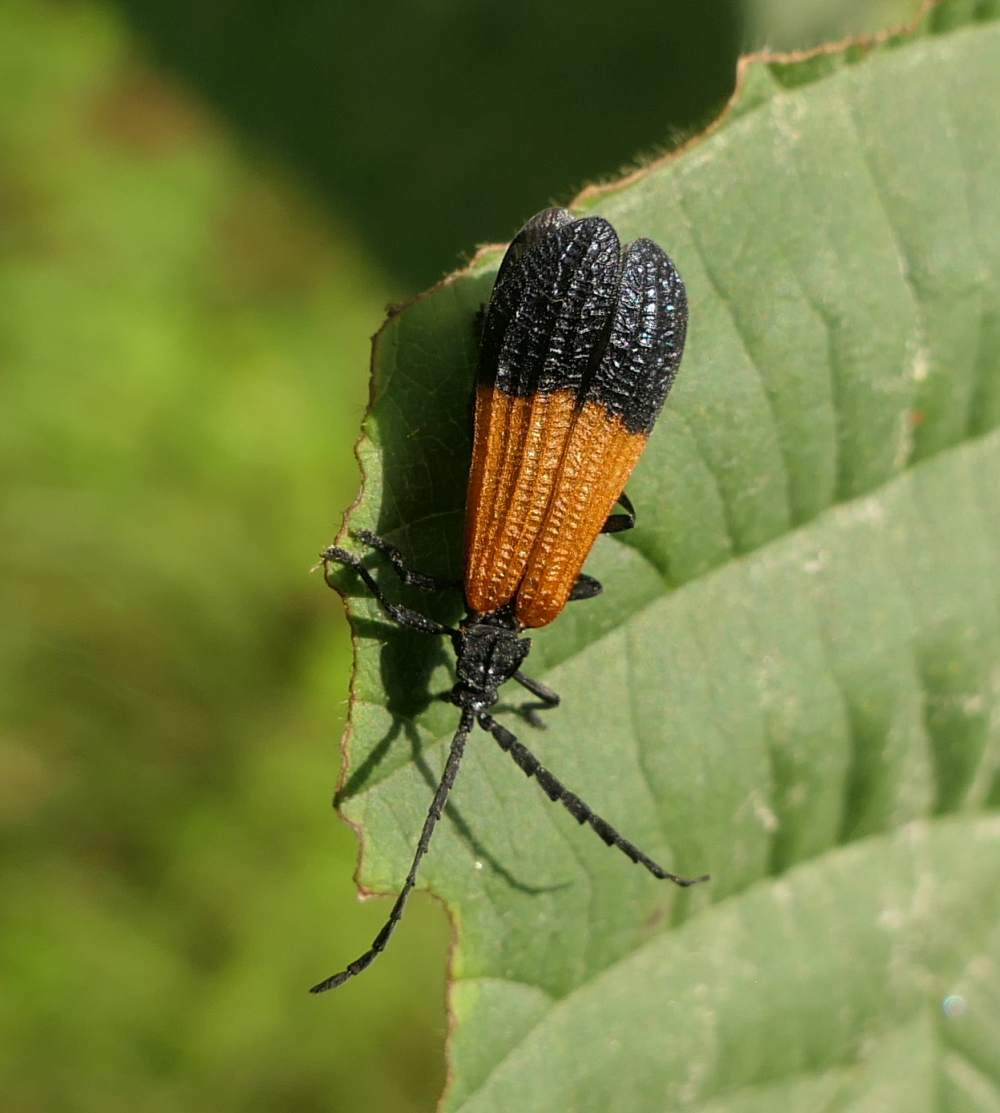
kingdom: Animalia
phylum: Arthropoda
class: Insecta
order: Coleoptera
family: Lycidae
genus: Calopteron
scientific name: Calopteron terminale
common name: End band net-winged beetle
